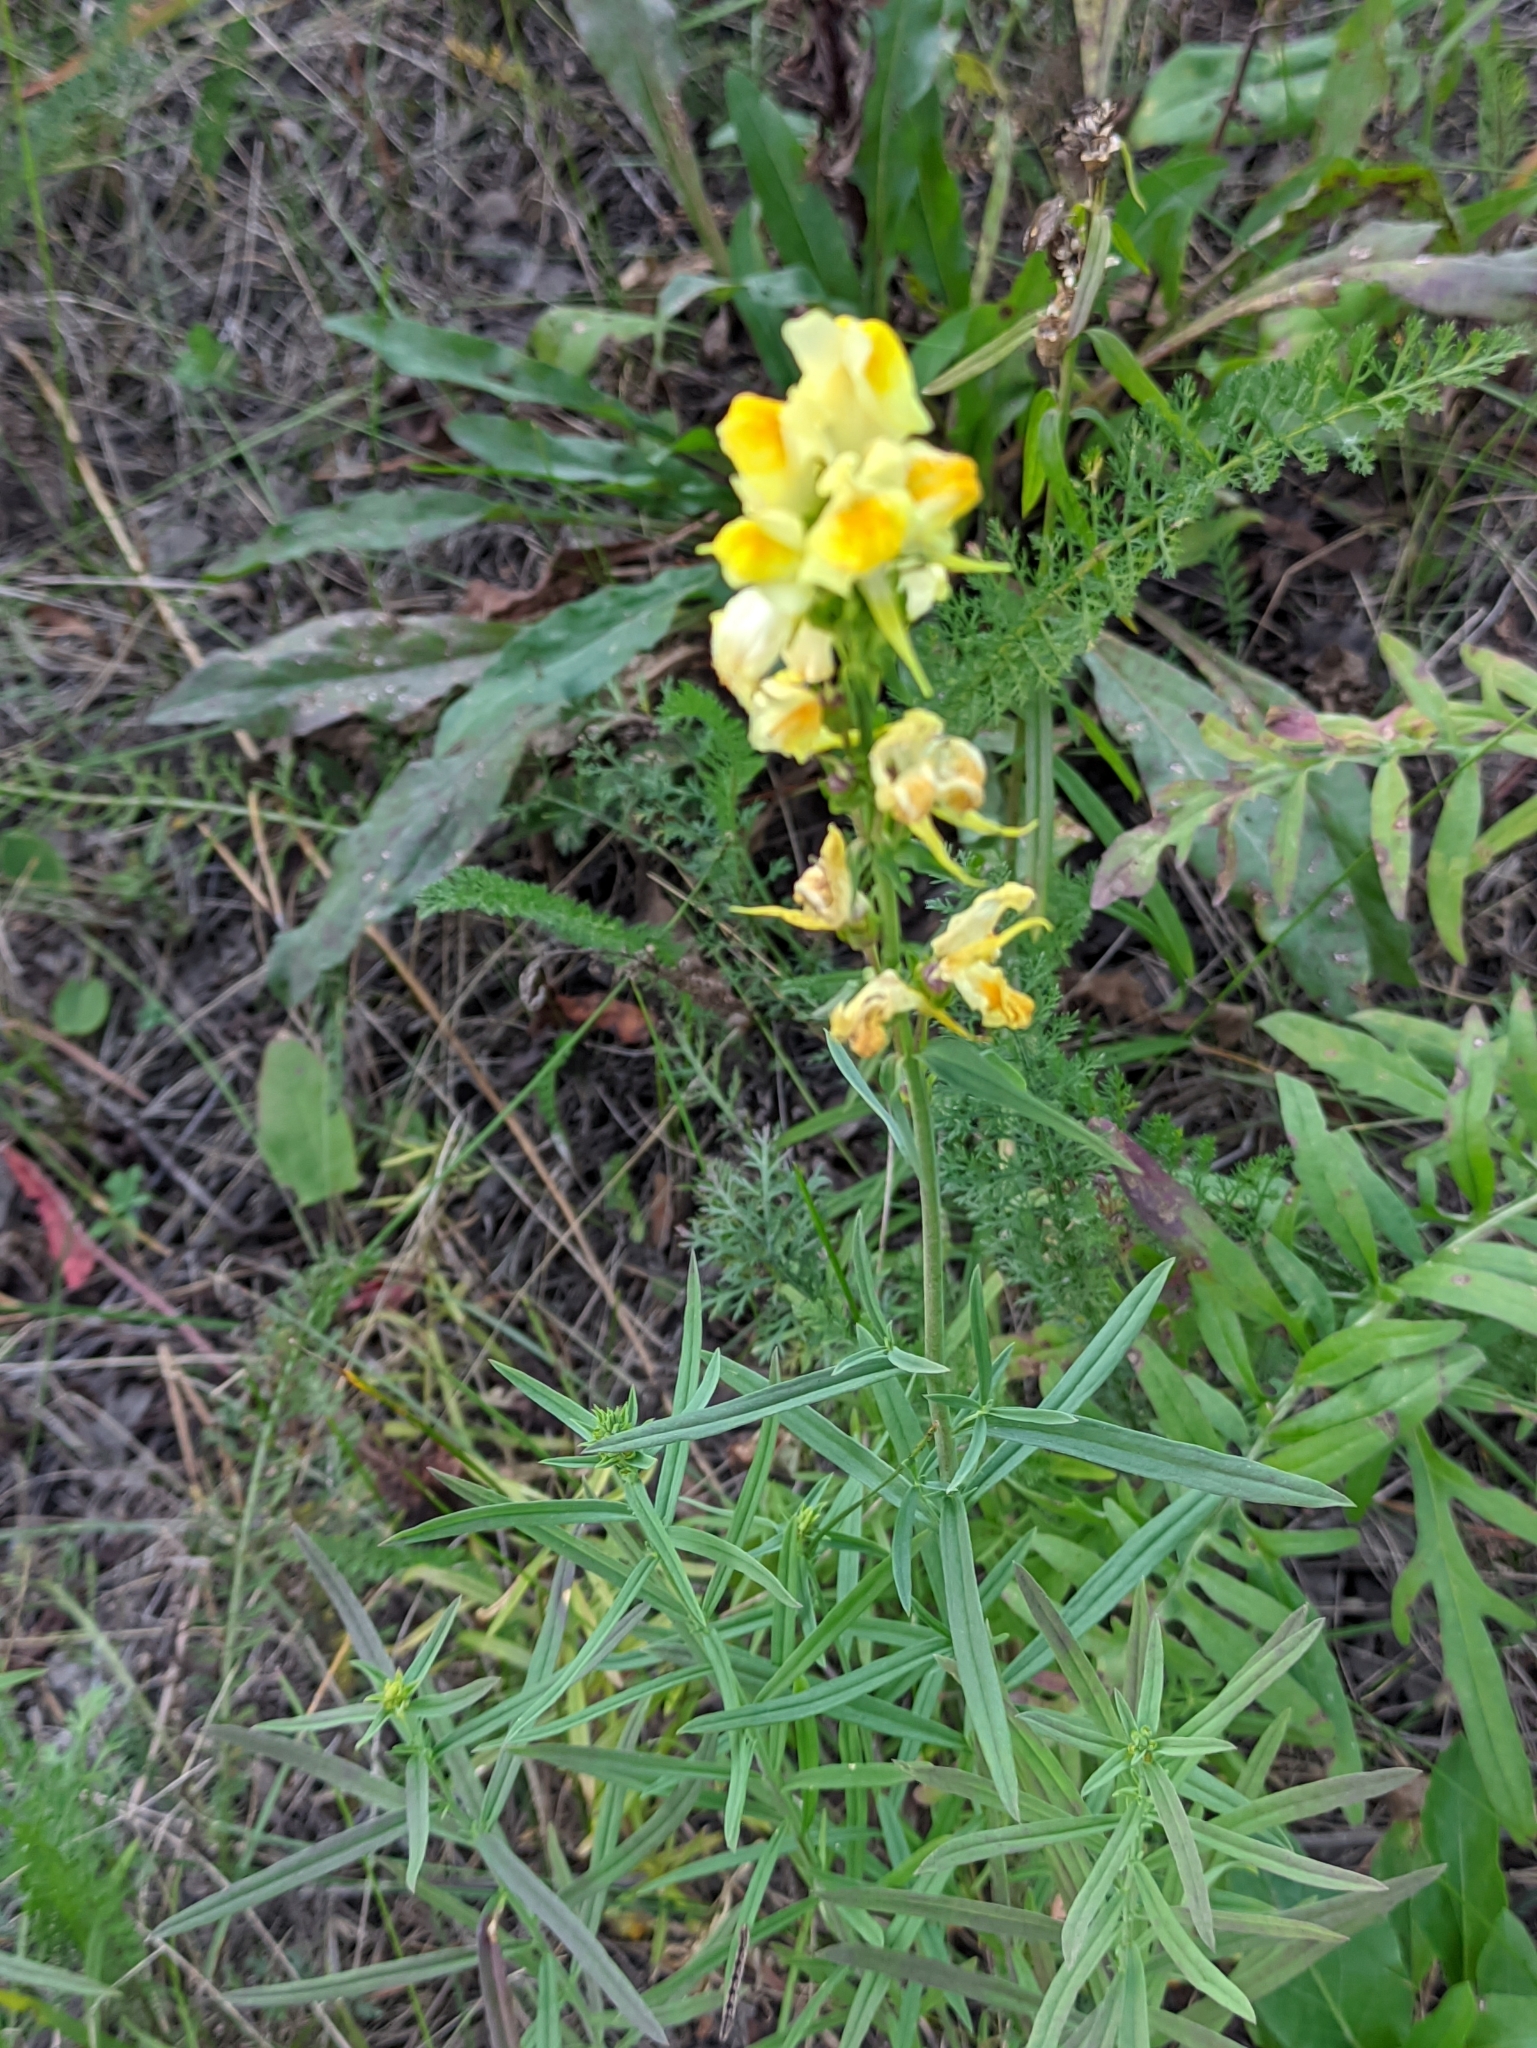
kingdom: Plantae
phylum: Tracheophyta
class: Magnoliopsida
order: Lamiales
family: Plantaginaceae
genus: Linaria
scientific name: Linaria vulgaris
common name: Butter and eggs
